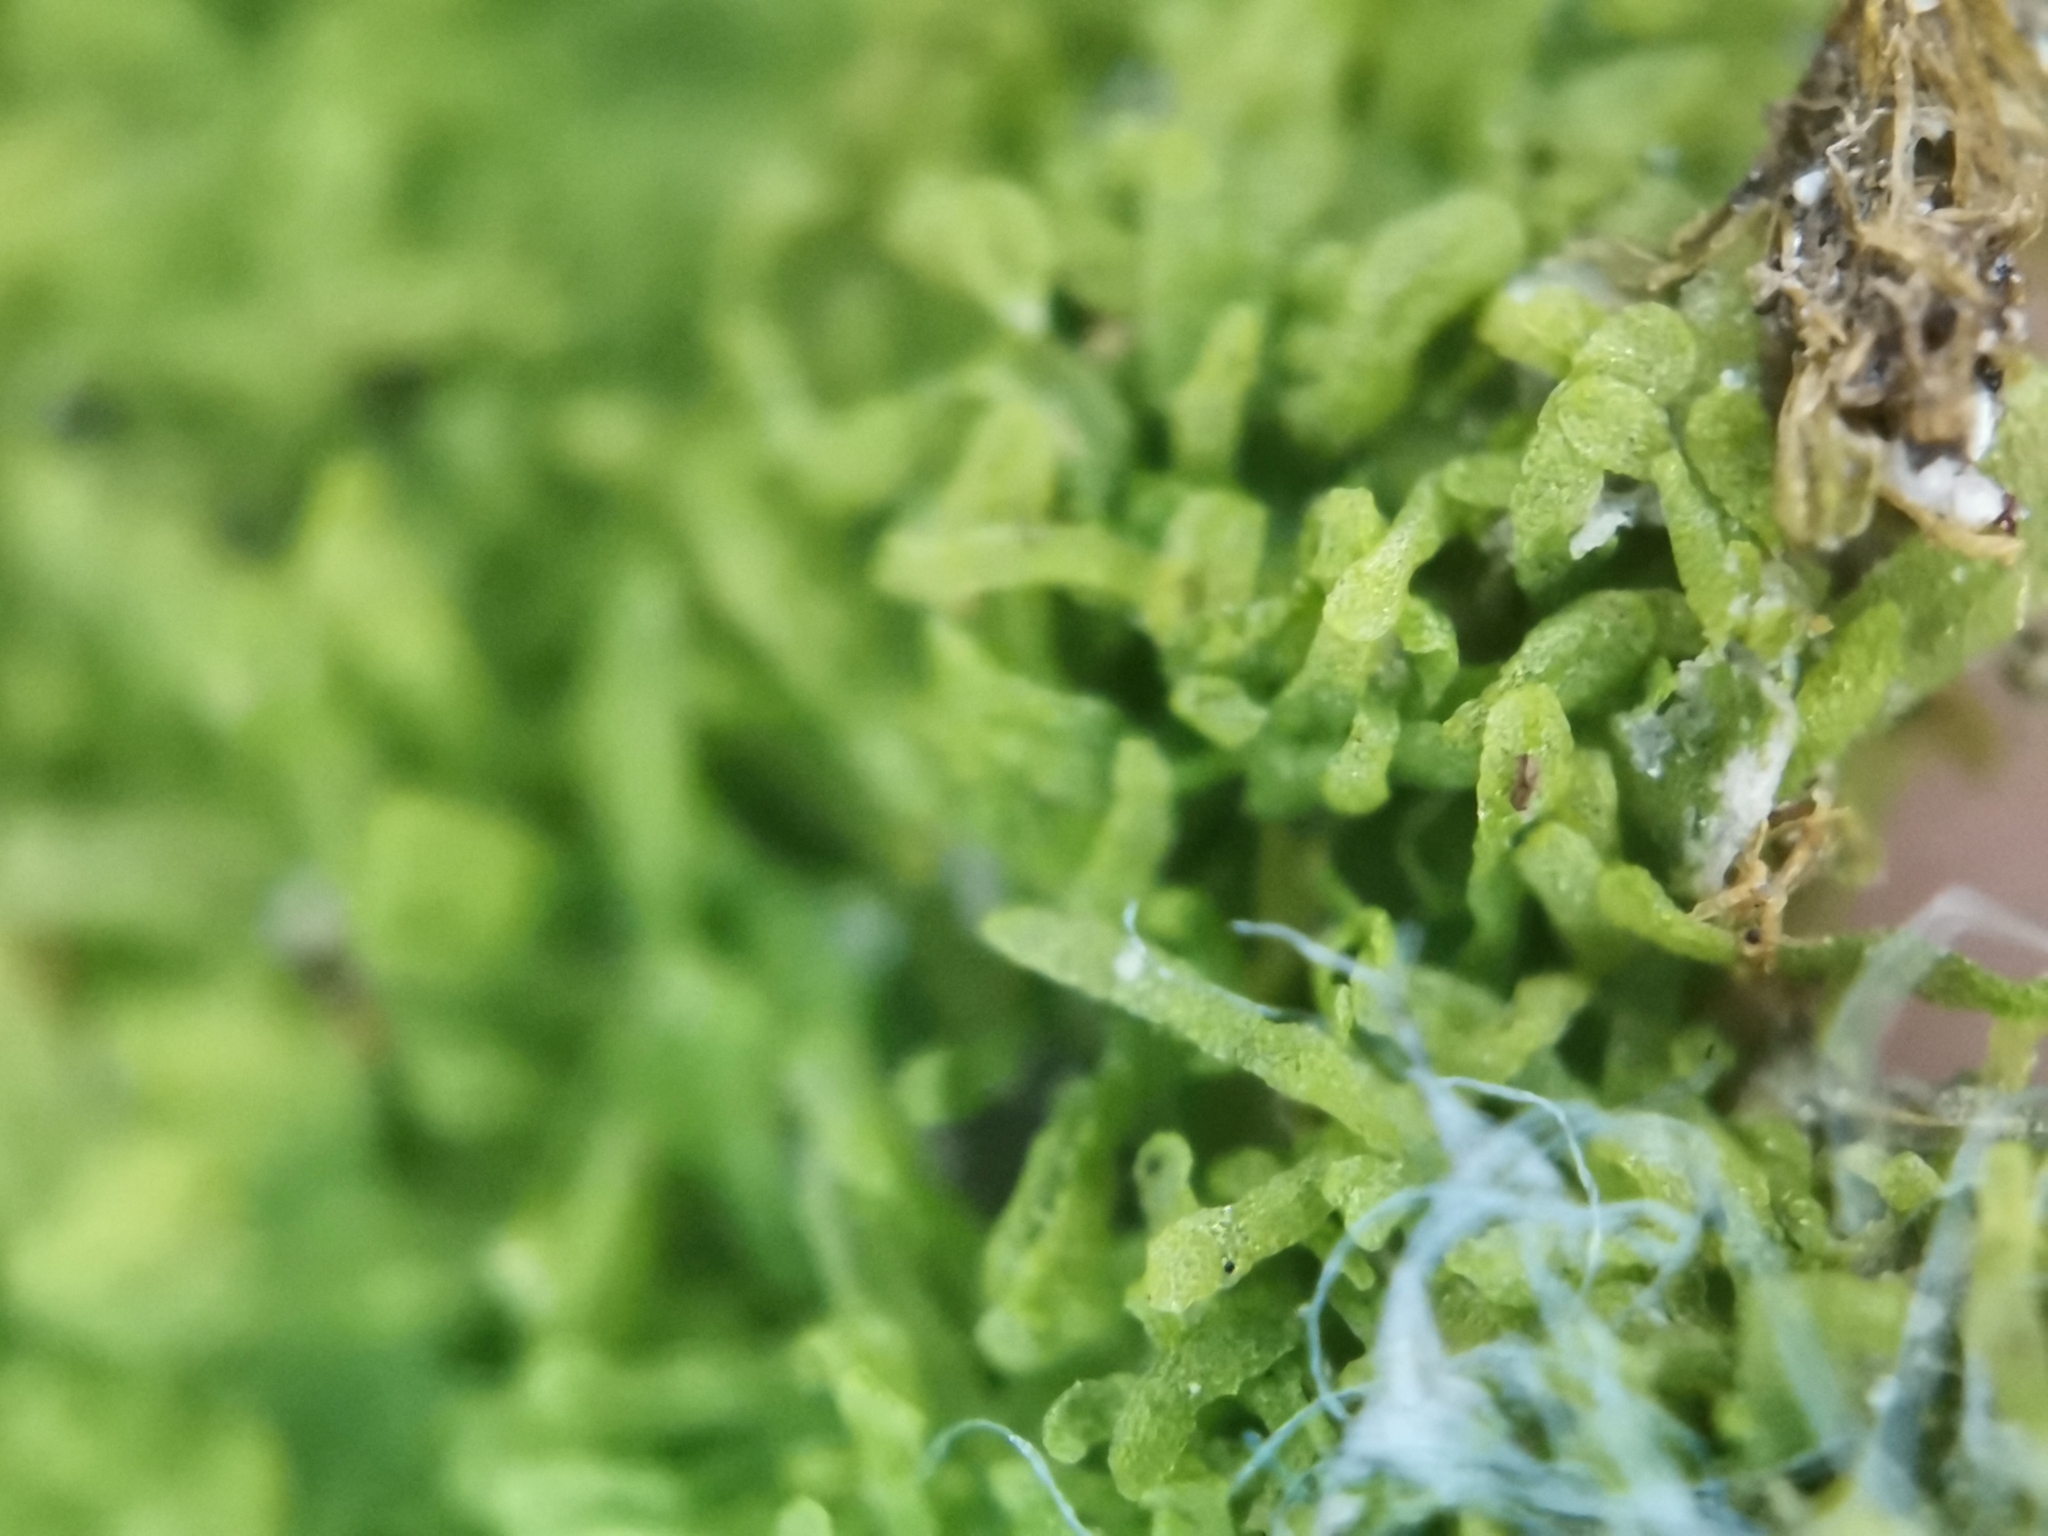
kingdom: Plantae
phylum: Marchantiophyta
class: Jungermanniopsida
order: Metzgeriales
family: Metzgeriaceae
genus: Metzgeria
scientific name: Metzgeria furcata
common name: Forked veilwort
